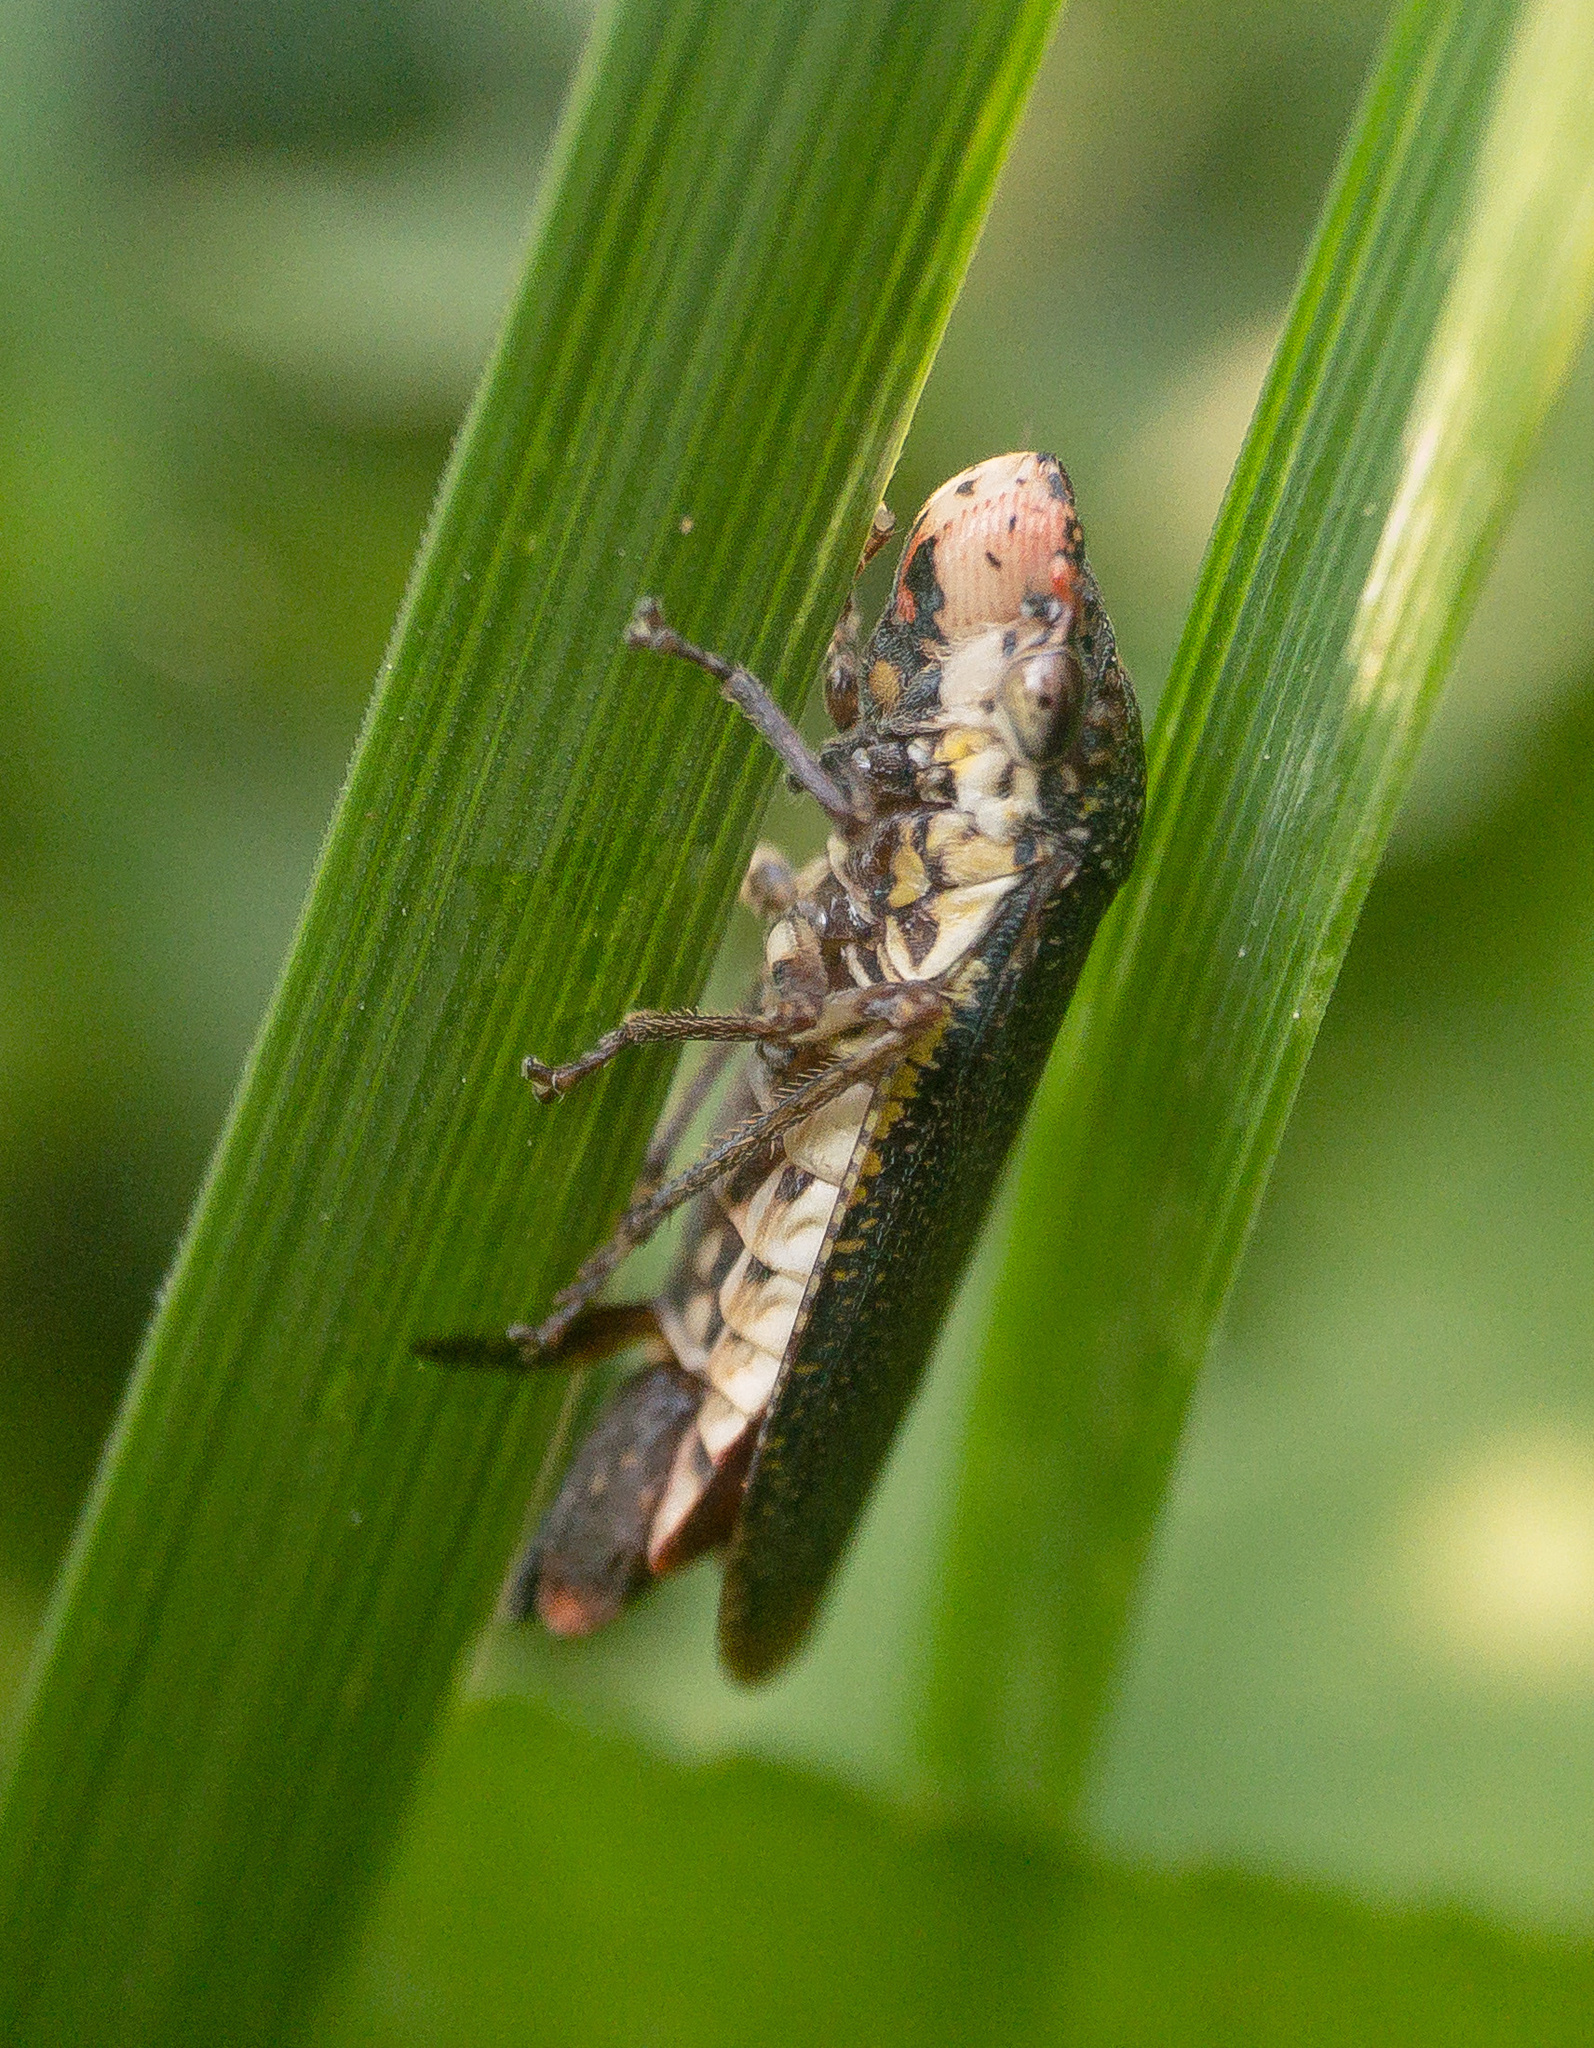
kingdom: Animalia
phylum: Arthropoda
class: Insecta
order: Hemiptera
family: Cicadellidae
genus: Paraulacizes
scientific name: Paraulacizes irrorata
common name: Speckled sharpshooter
